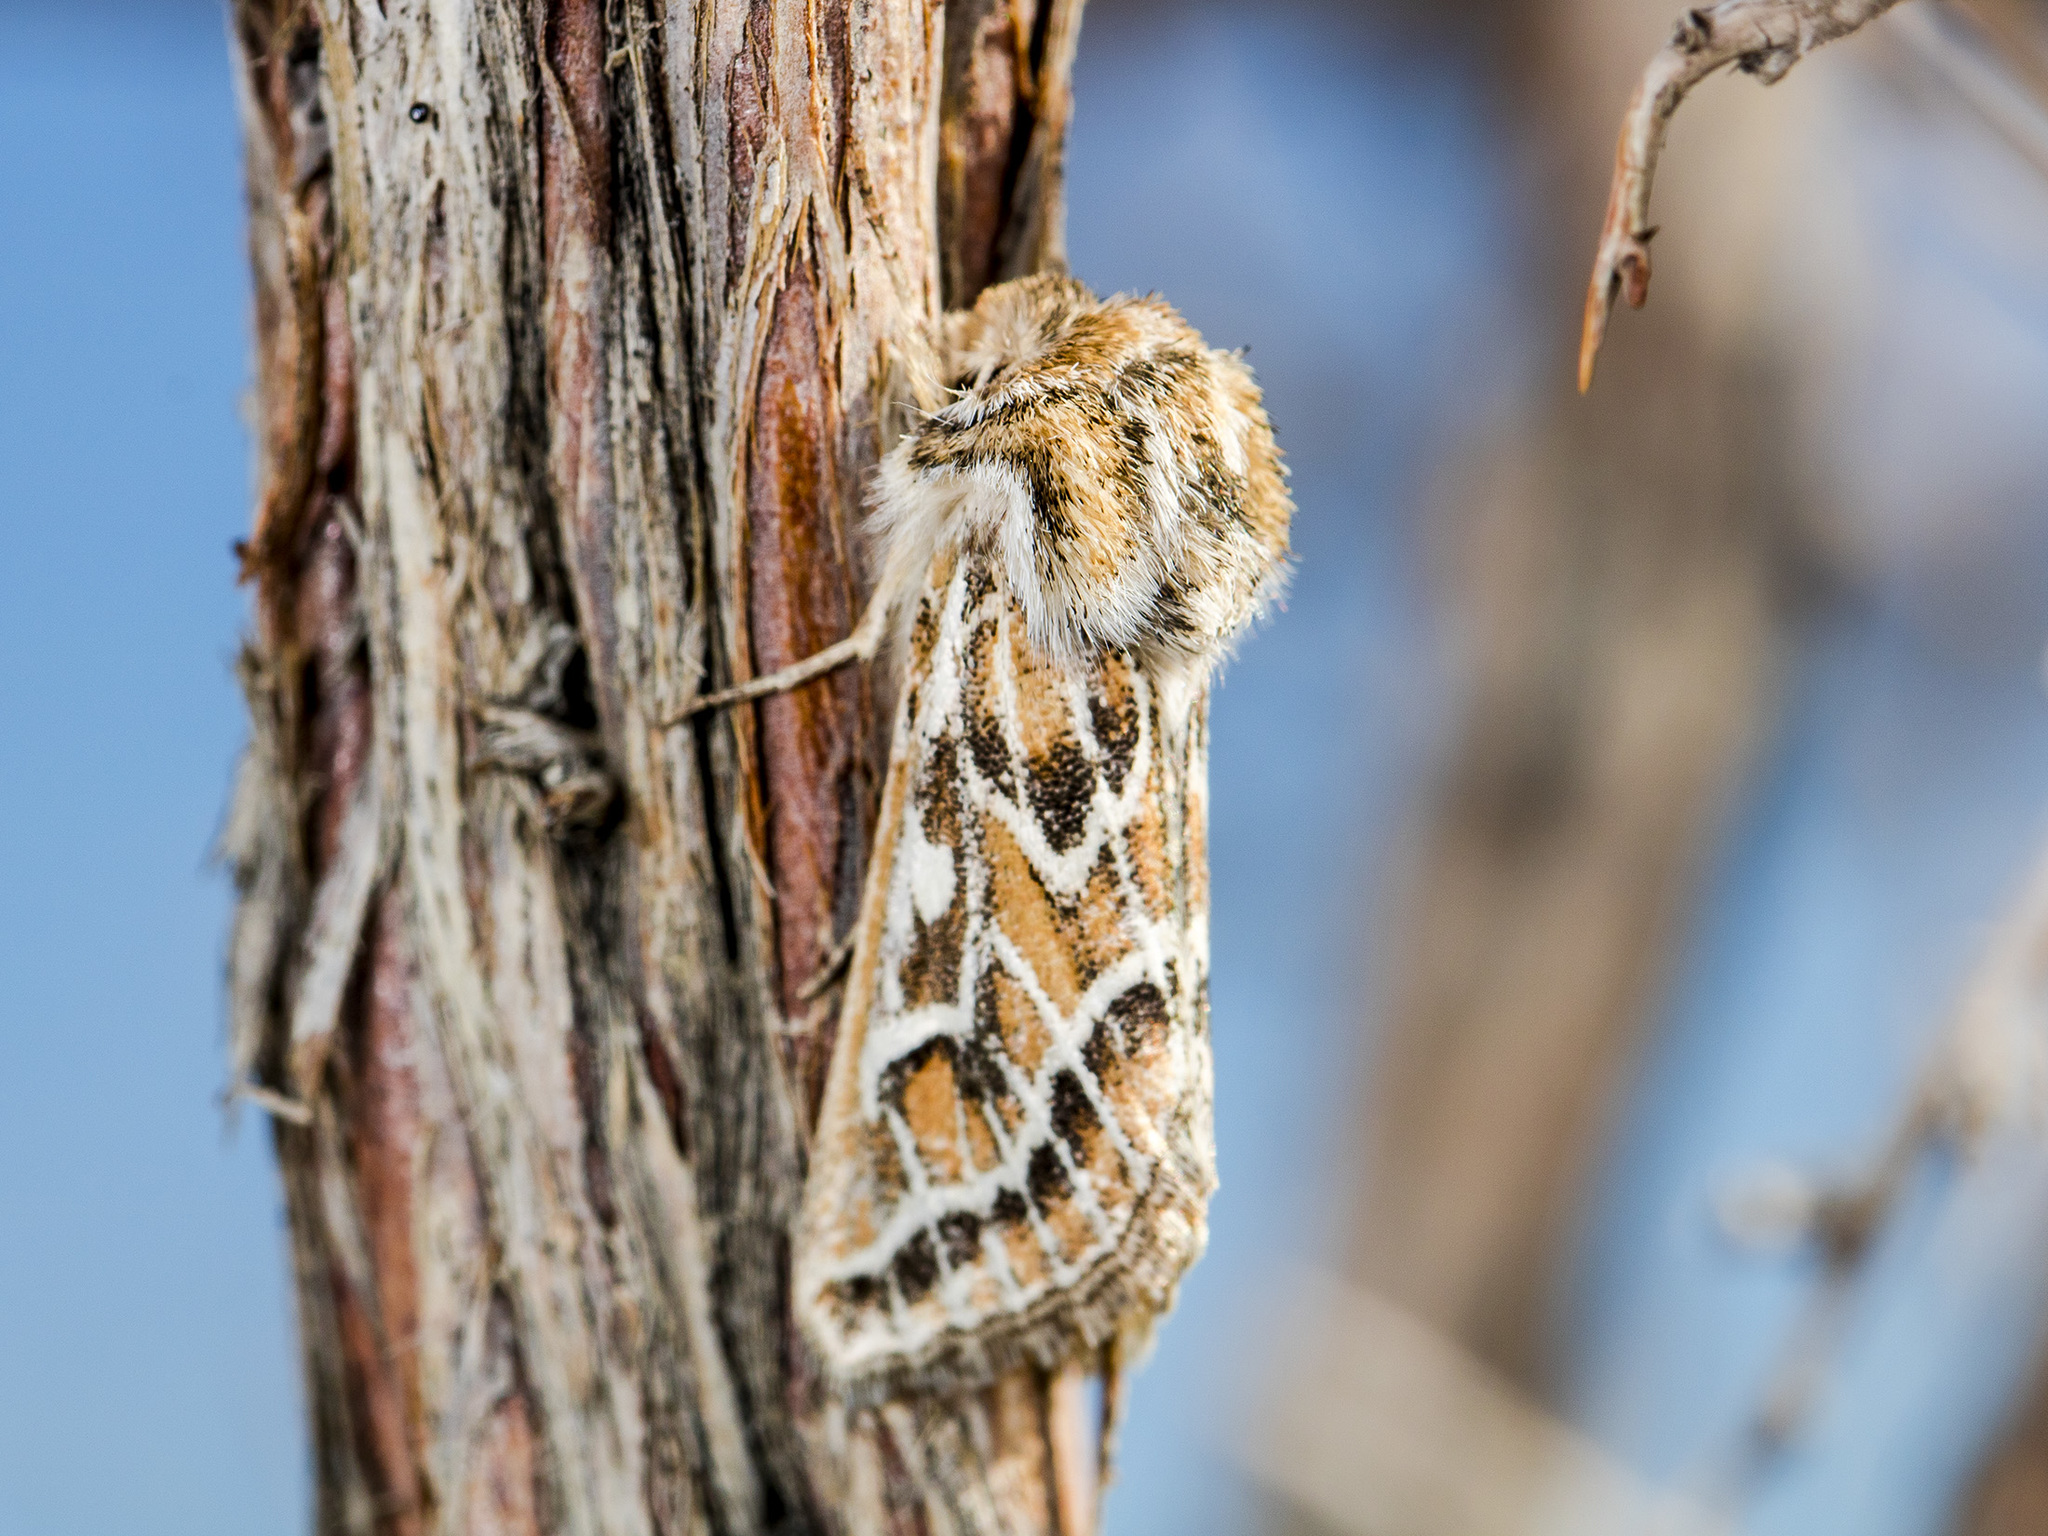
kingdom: Animalia
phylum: Arthropoda
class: Insecta
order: Lepidoptera
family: Noctuidae
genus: Margelana
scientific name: Margelana versicolor
